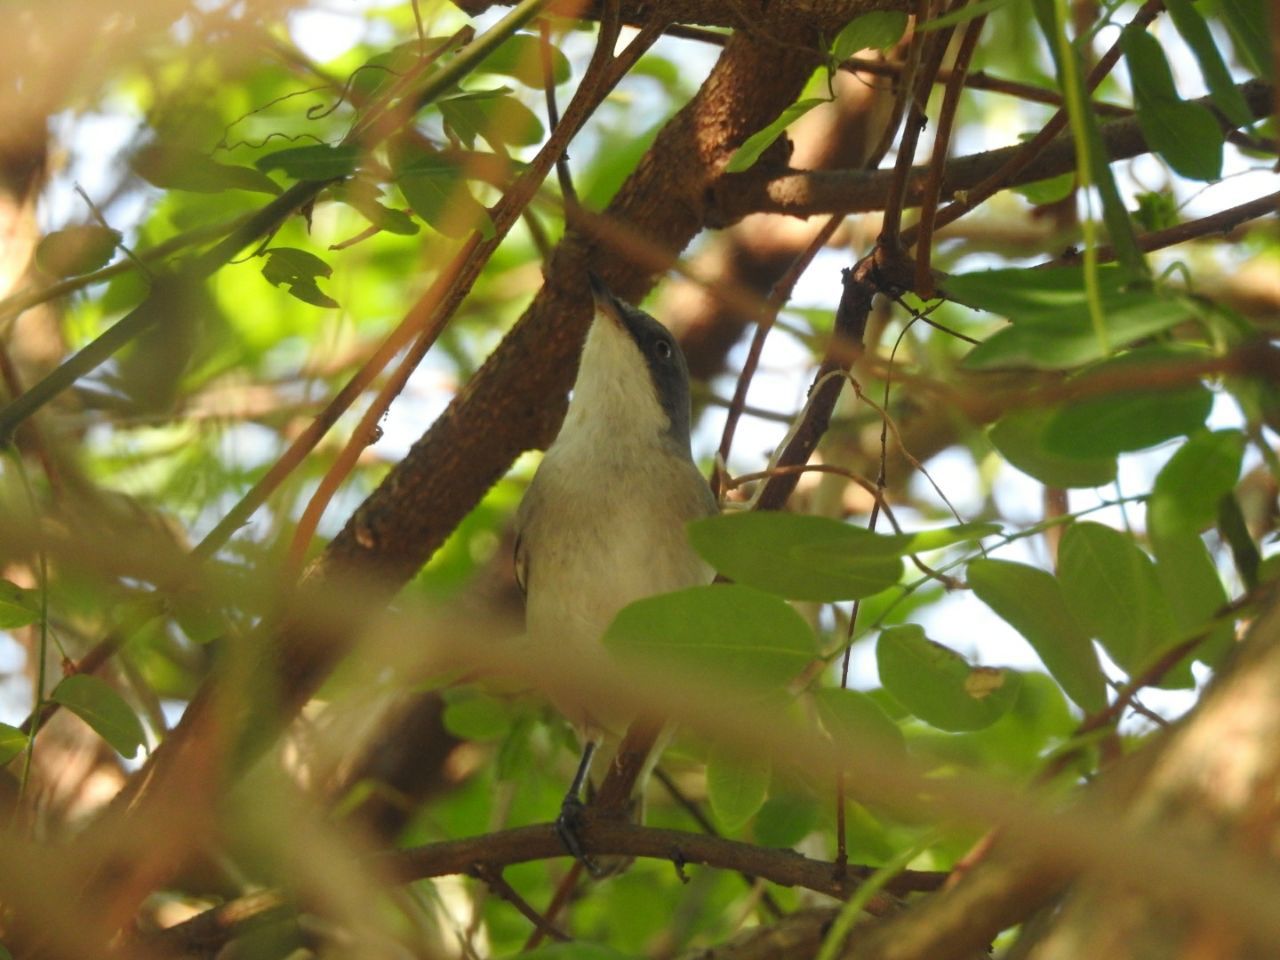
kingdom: Animalia
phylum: Chordata
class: Aves
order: Passeriformes
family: Sylviidae
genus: Sylvia
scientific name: Sylvia crassirostris
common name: Eastern orphean warbler
